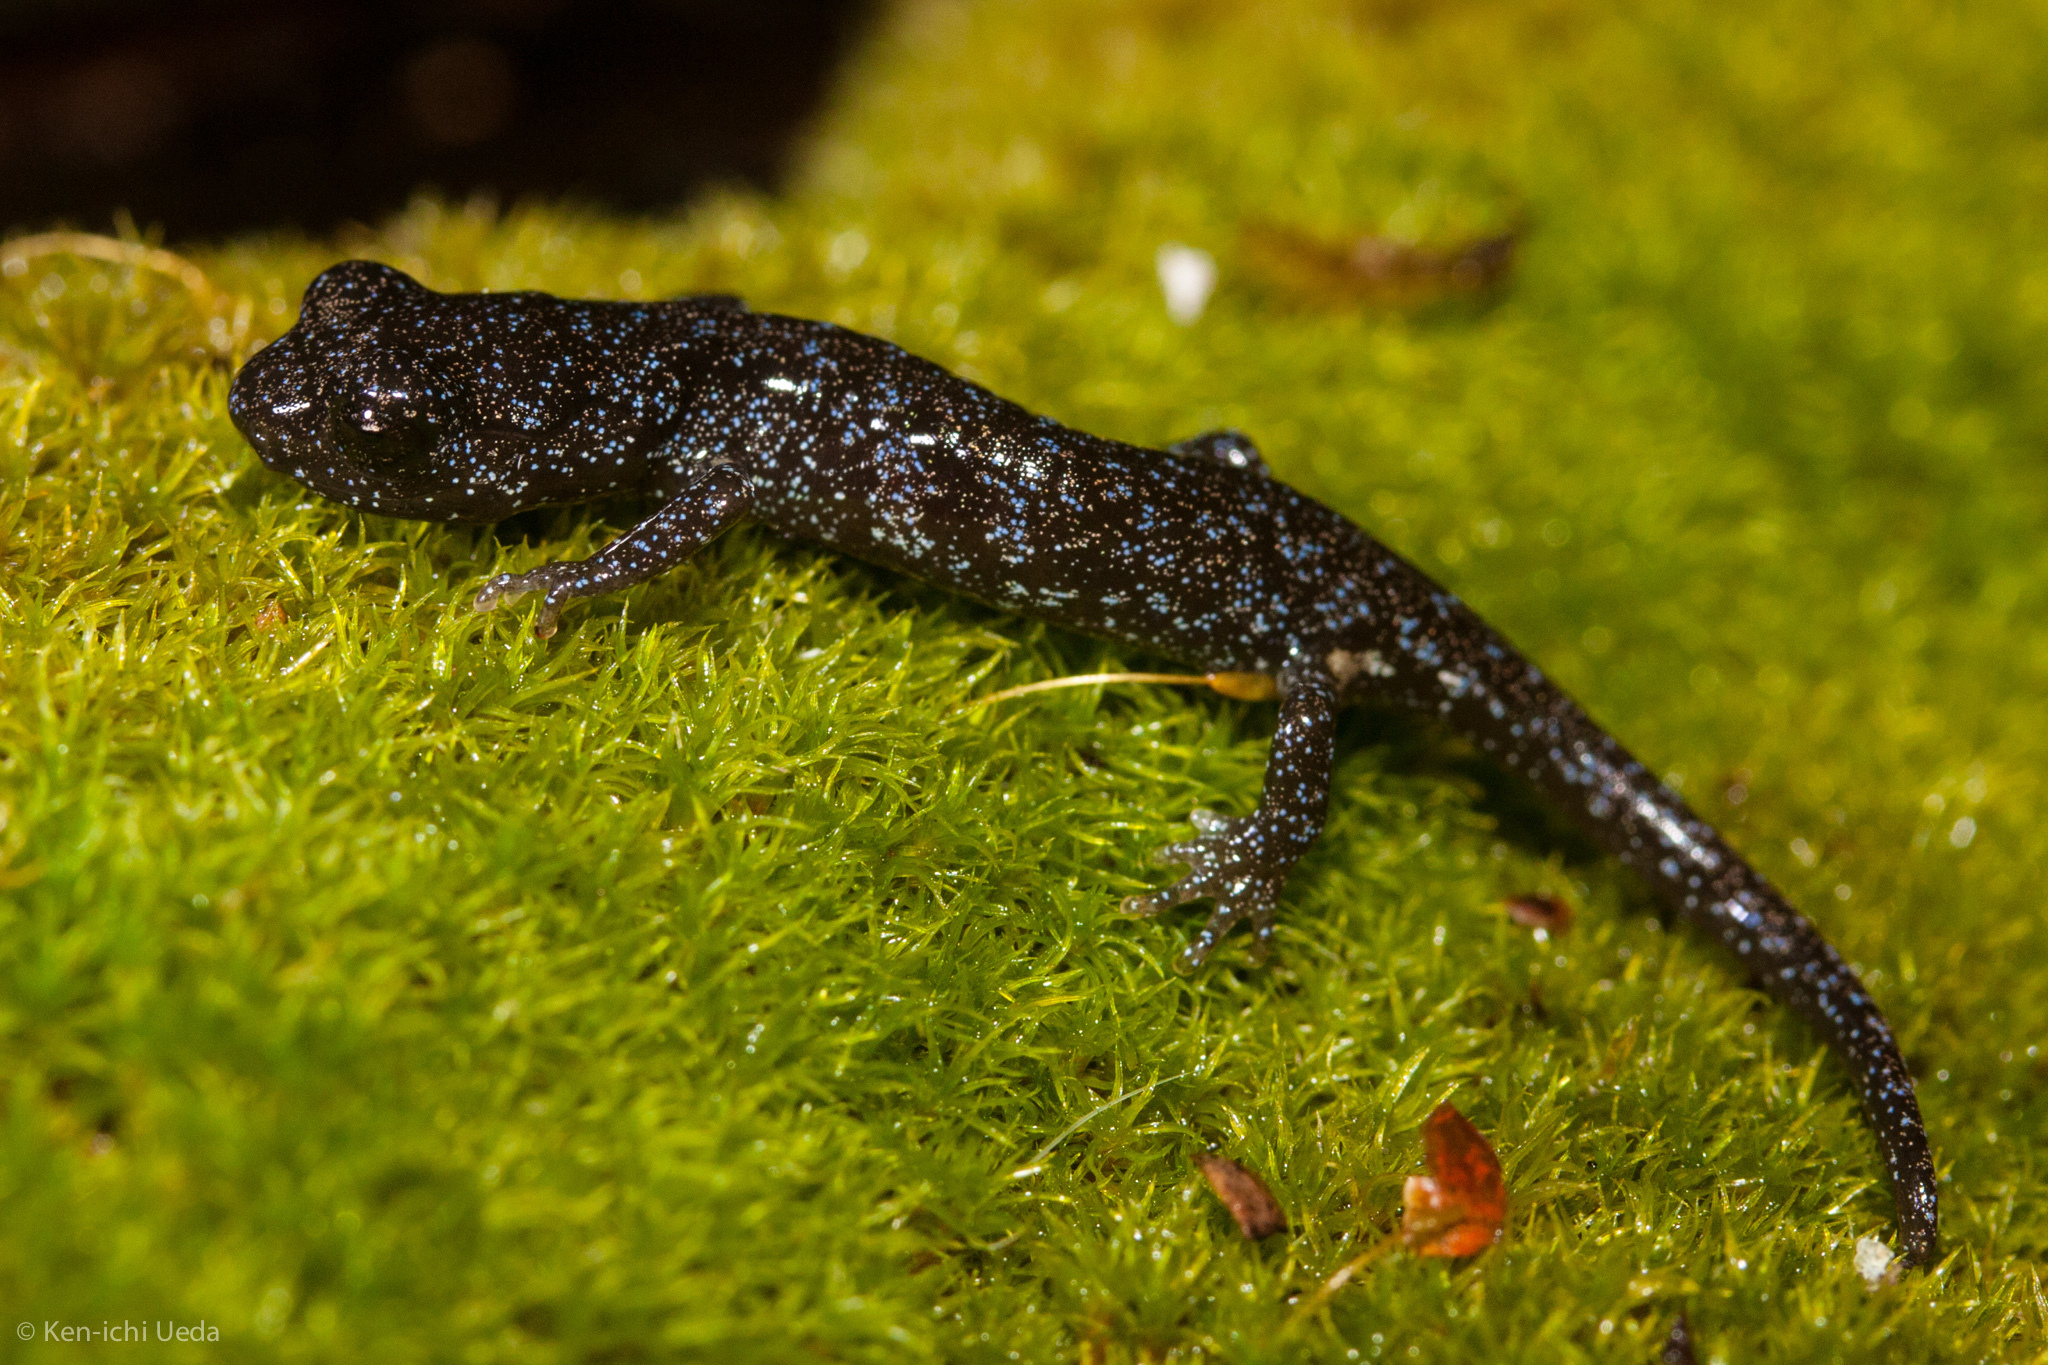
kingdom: Animalia
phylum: Chordata
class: Amphibia
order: Caudata
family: Plethodontidae
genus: Aneides
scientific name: Aneides niger
